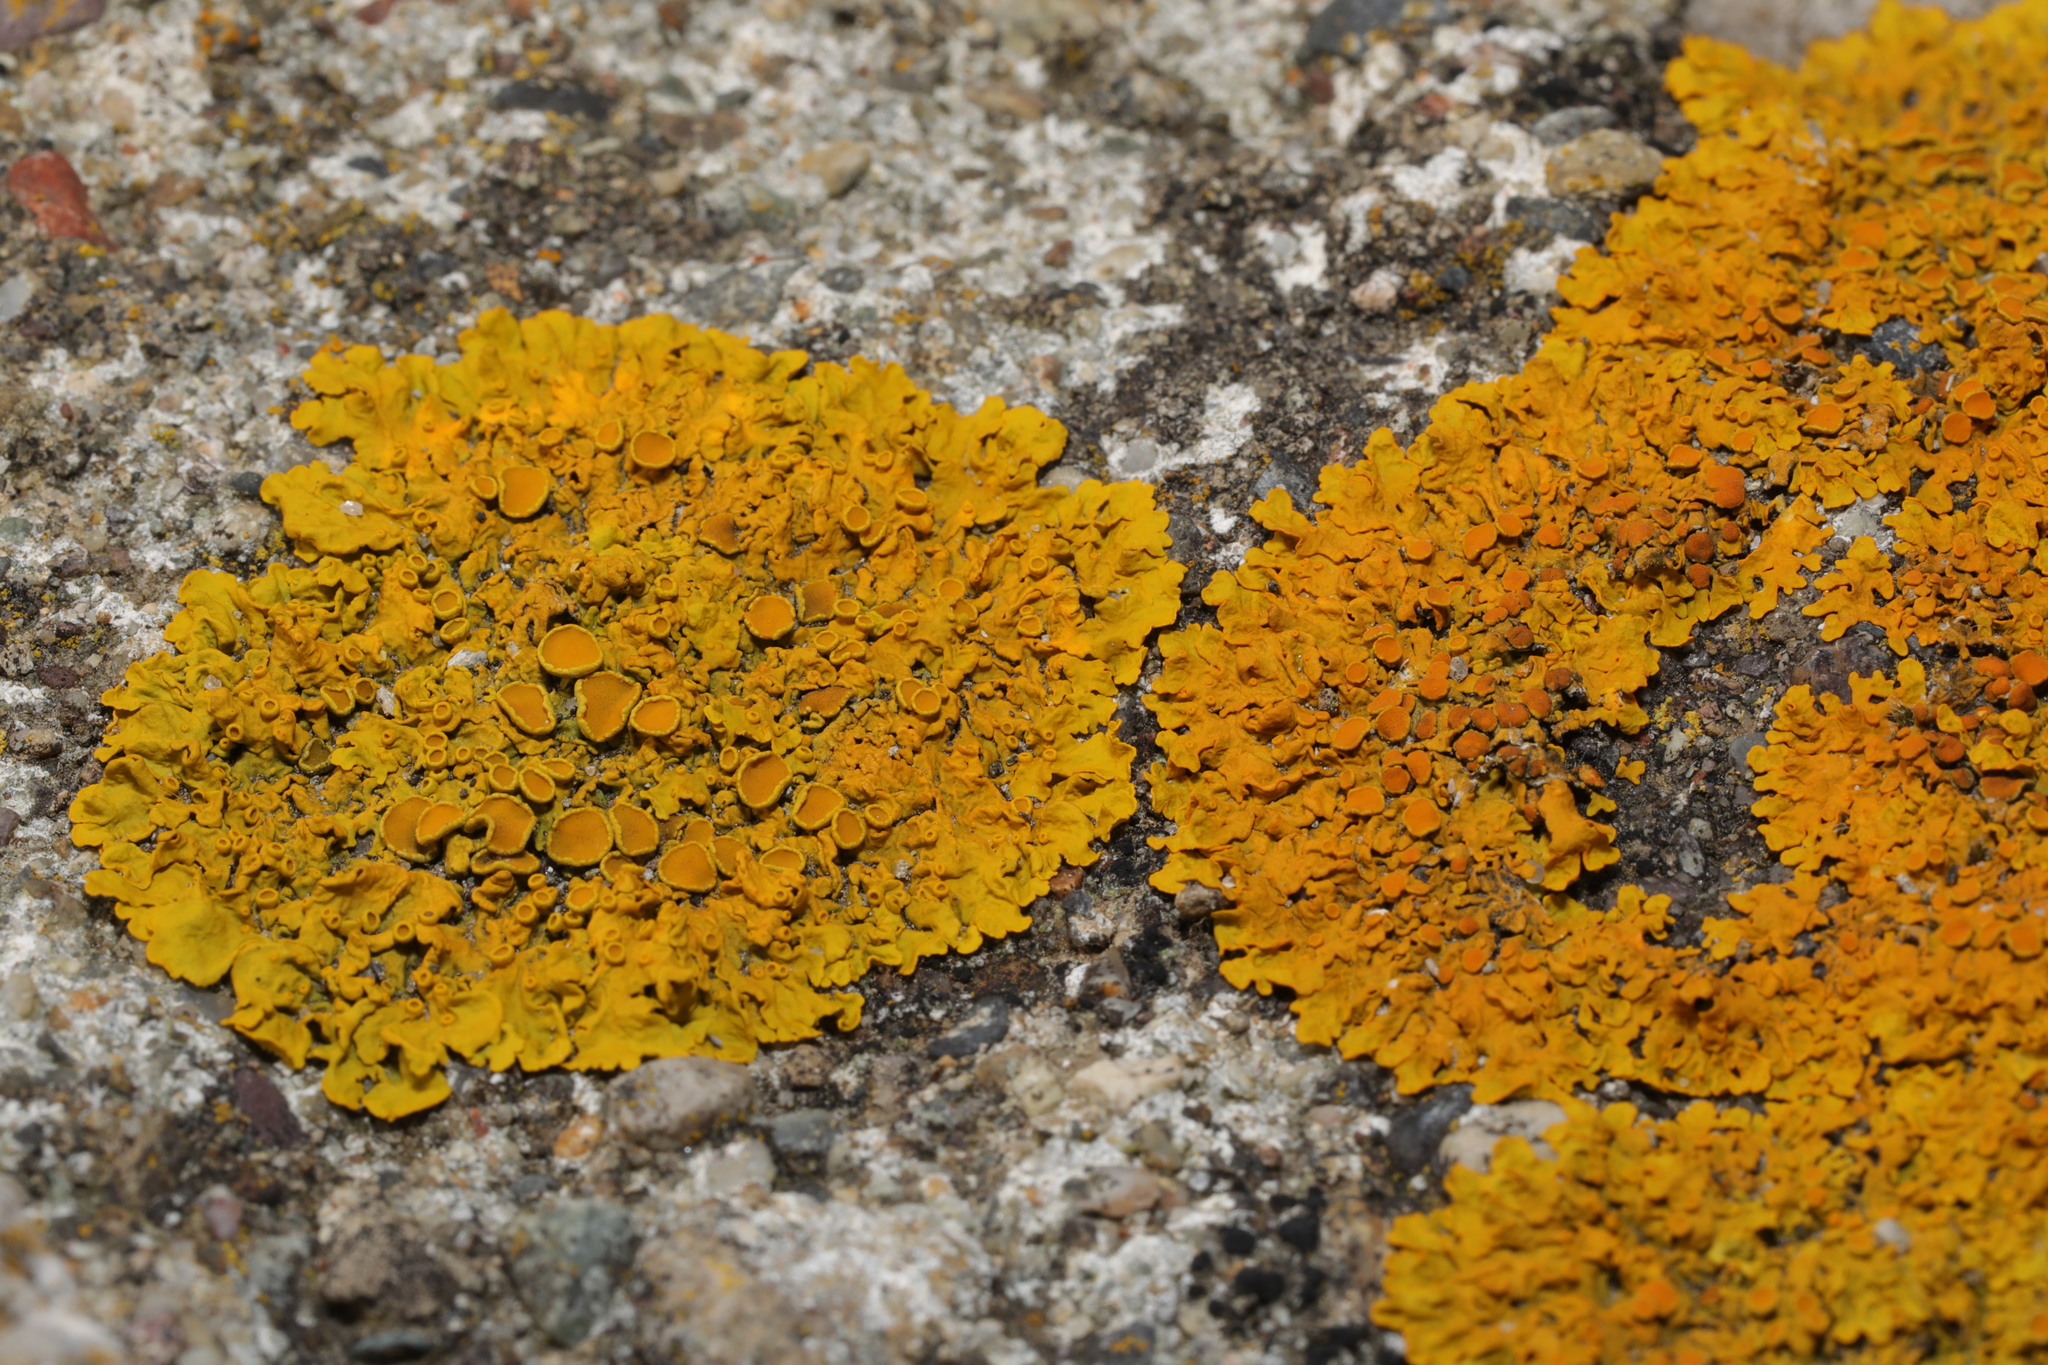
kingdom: Fungi
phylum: Ascomycota
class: Lecanoromycetes
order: Teloschistales
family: Teloschistaceae
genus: Xanthoria
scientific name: Xanthoria parietina
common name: Common orange lichen
